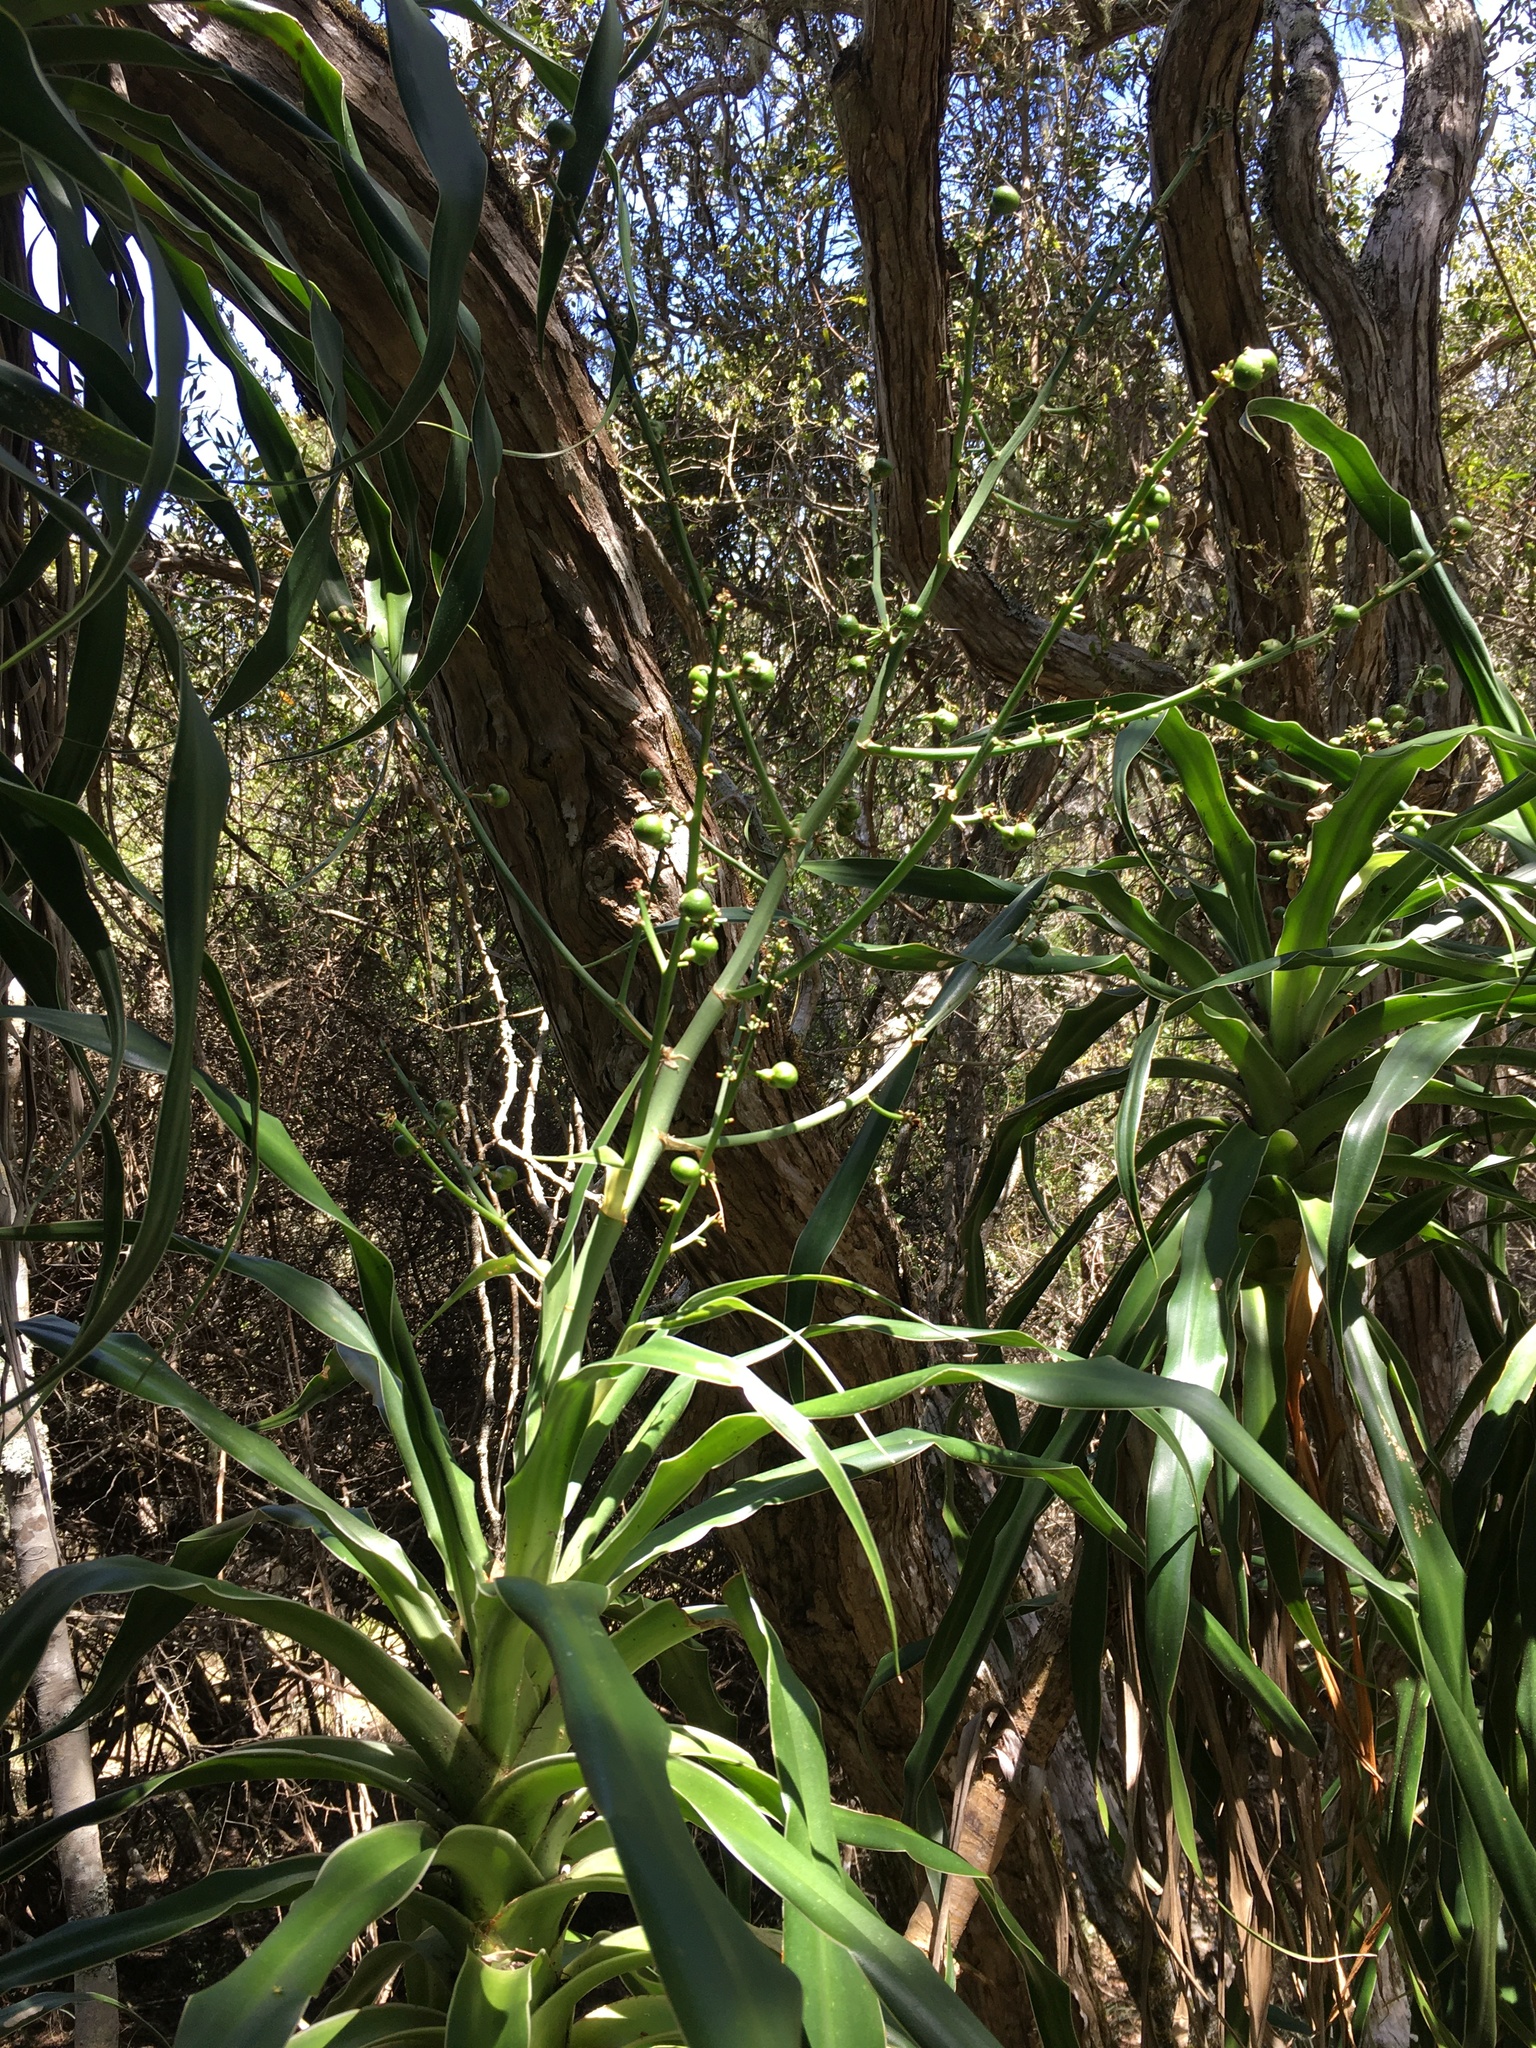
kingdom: Plantae
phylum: Tracheophyta
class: Liliopsida
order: Asparagales
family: Asparagaceae
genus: Dracaena
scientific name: Dracaena aletriformis
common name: Large-leaved dragon tree
